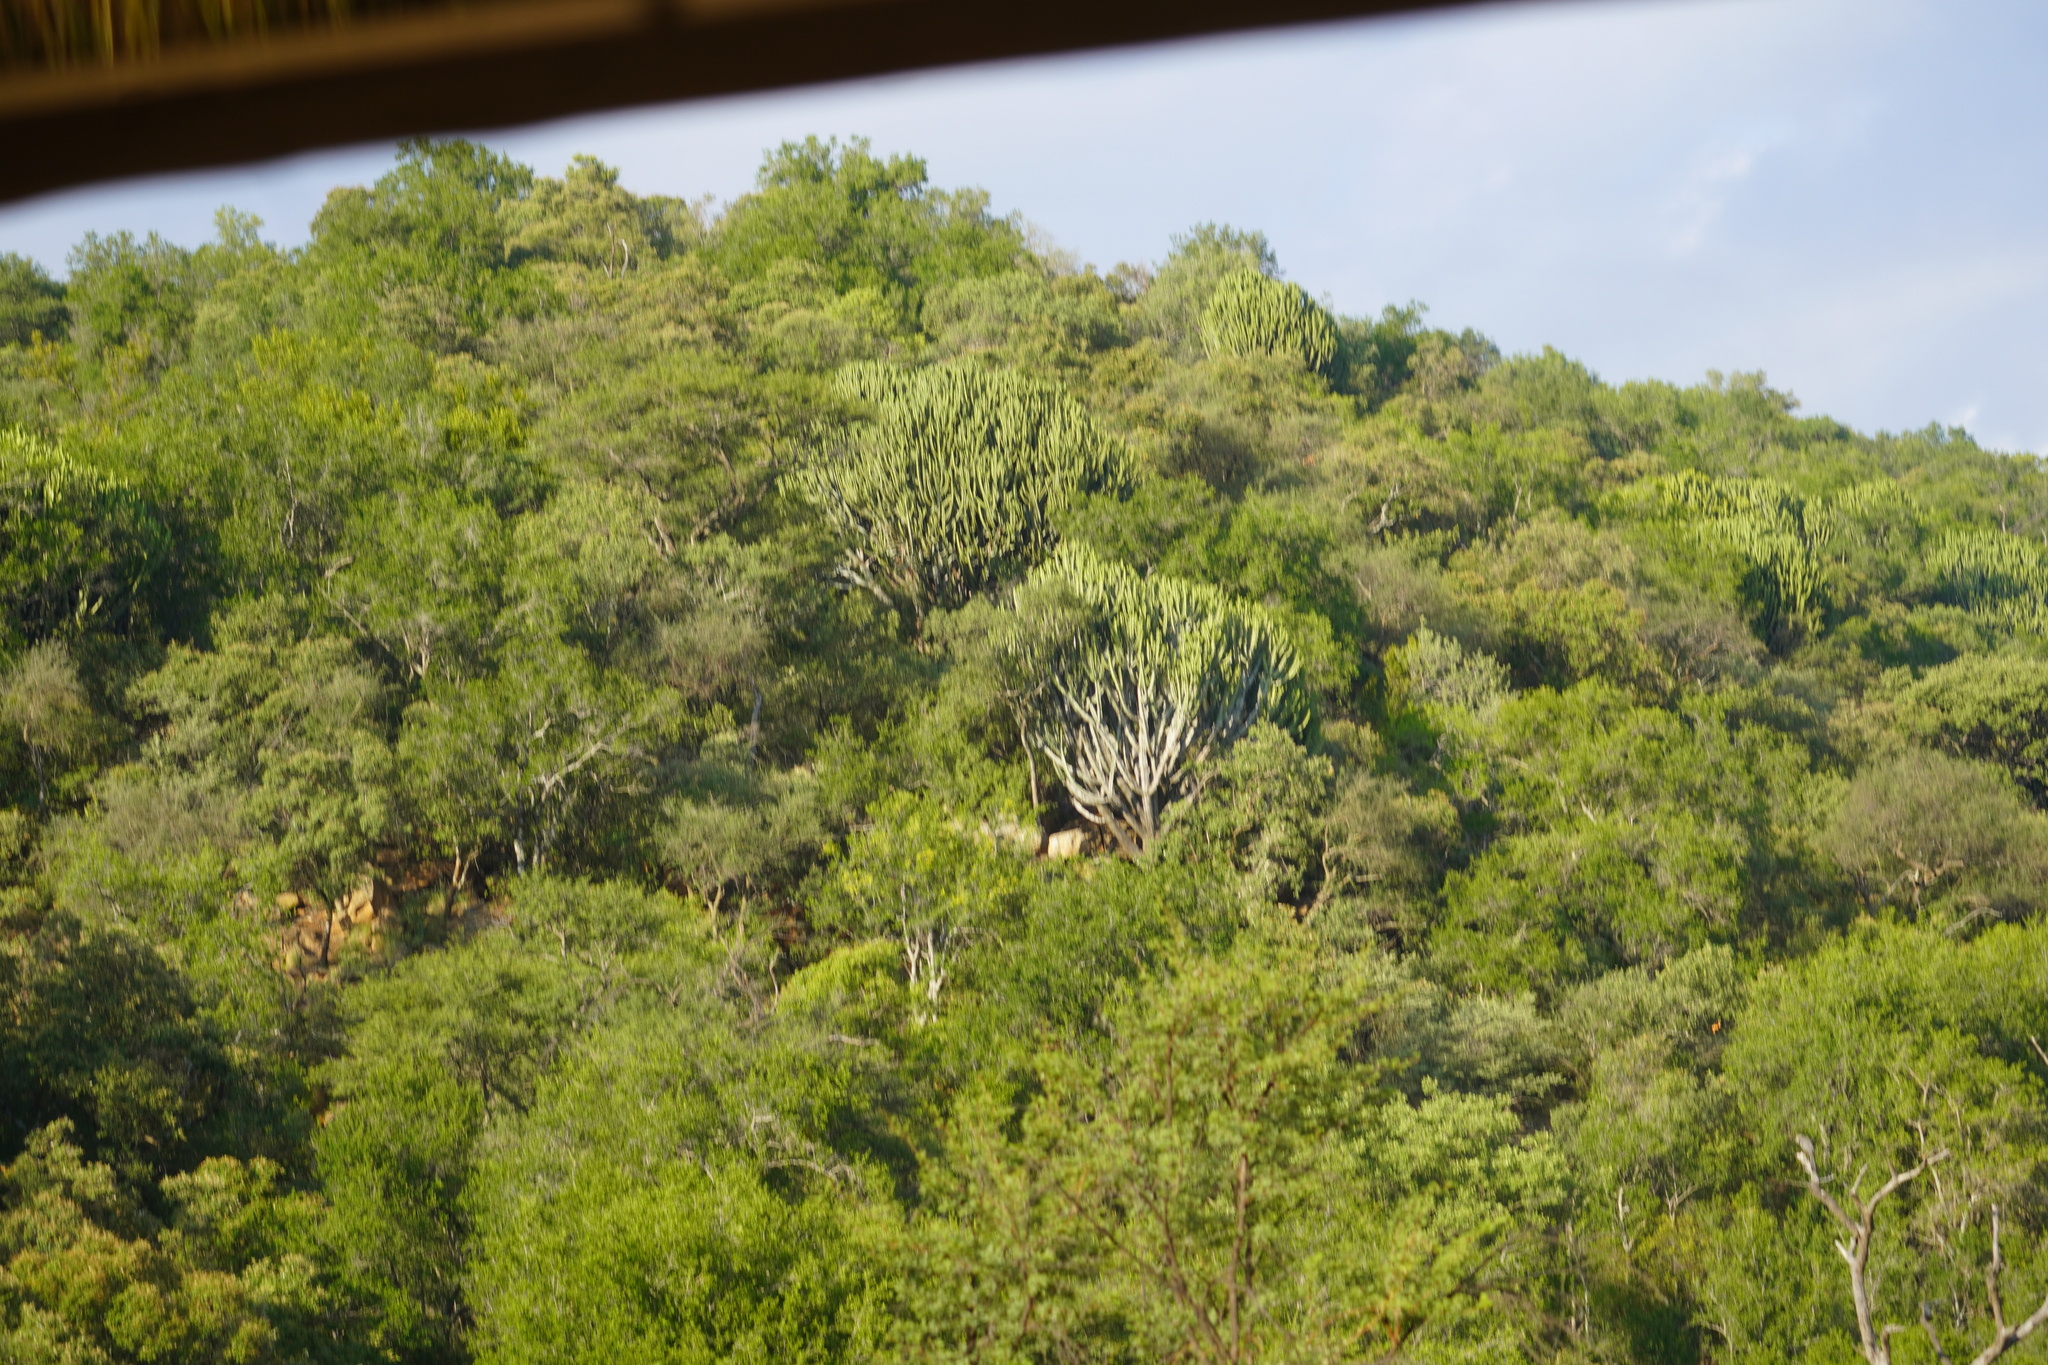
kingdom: Plantae
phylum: Tracheophyta
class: Magnoliopsida
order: Malpighiales
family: Euphorbiaceae
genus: Euphorbia
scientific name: Euphorbia ingens
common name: Cactus spurge
